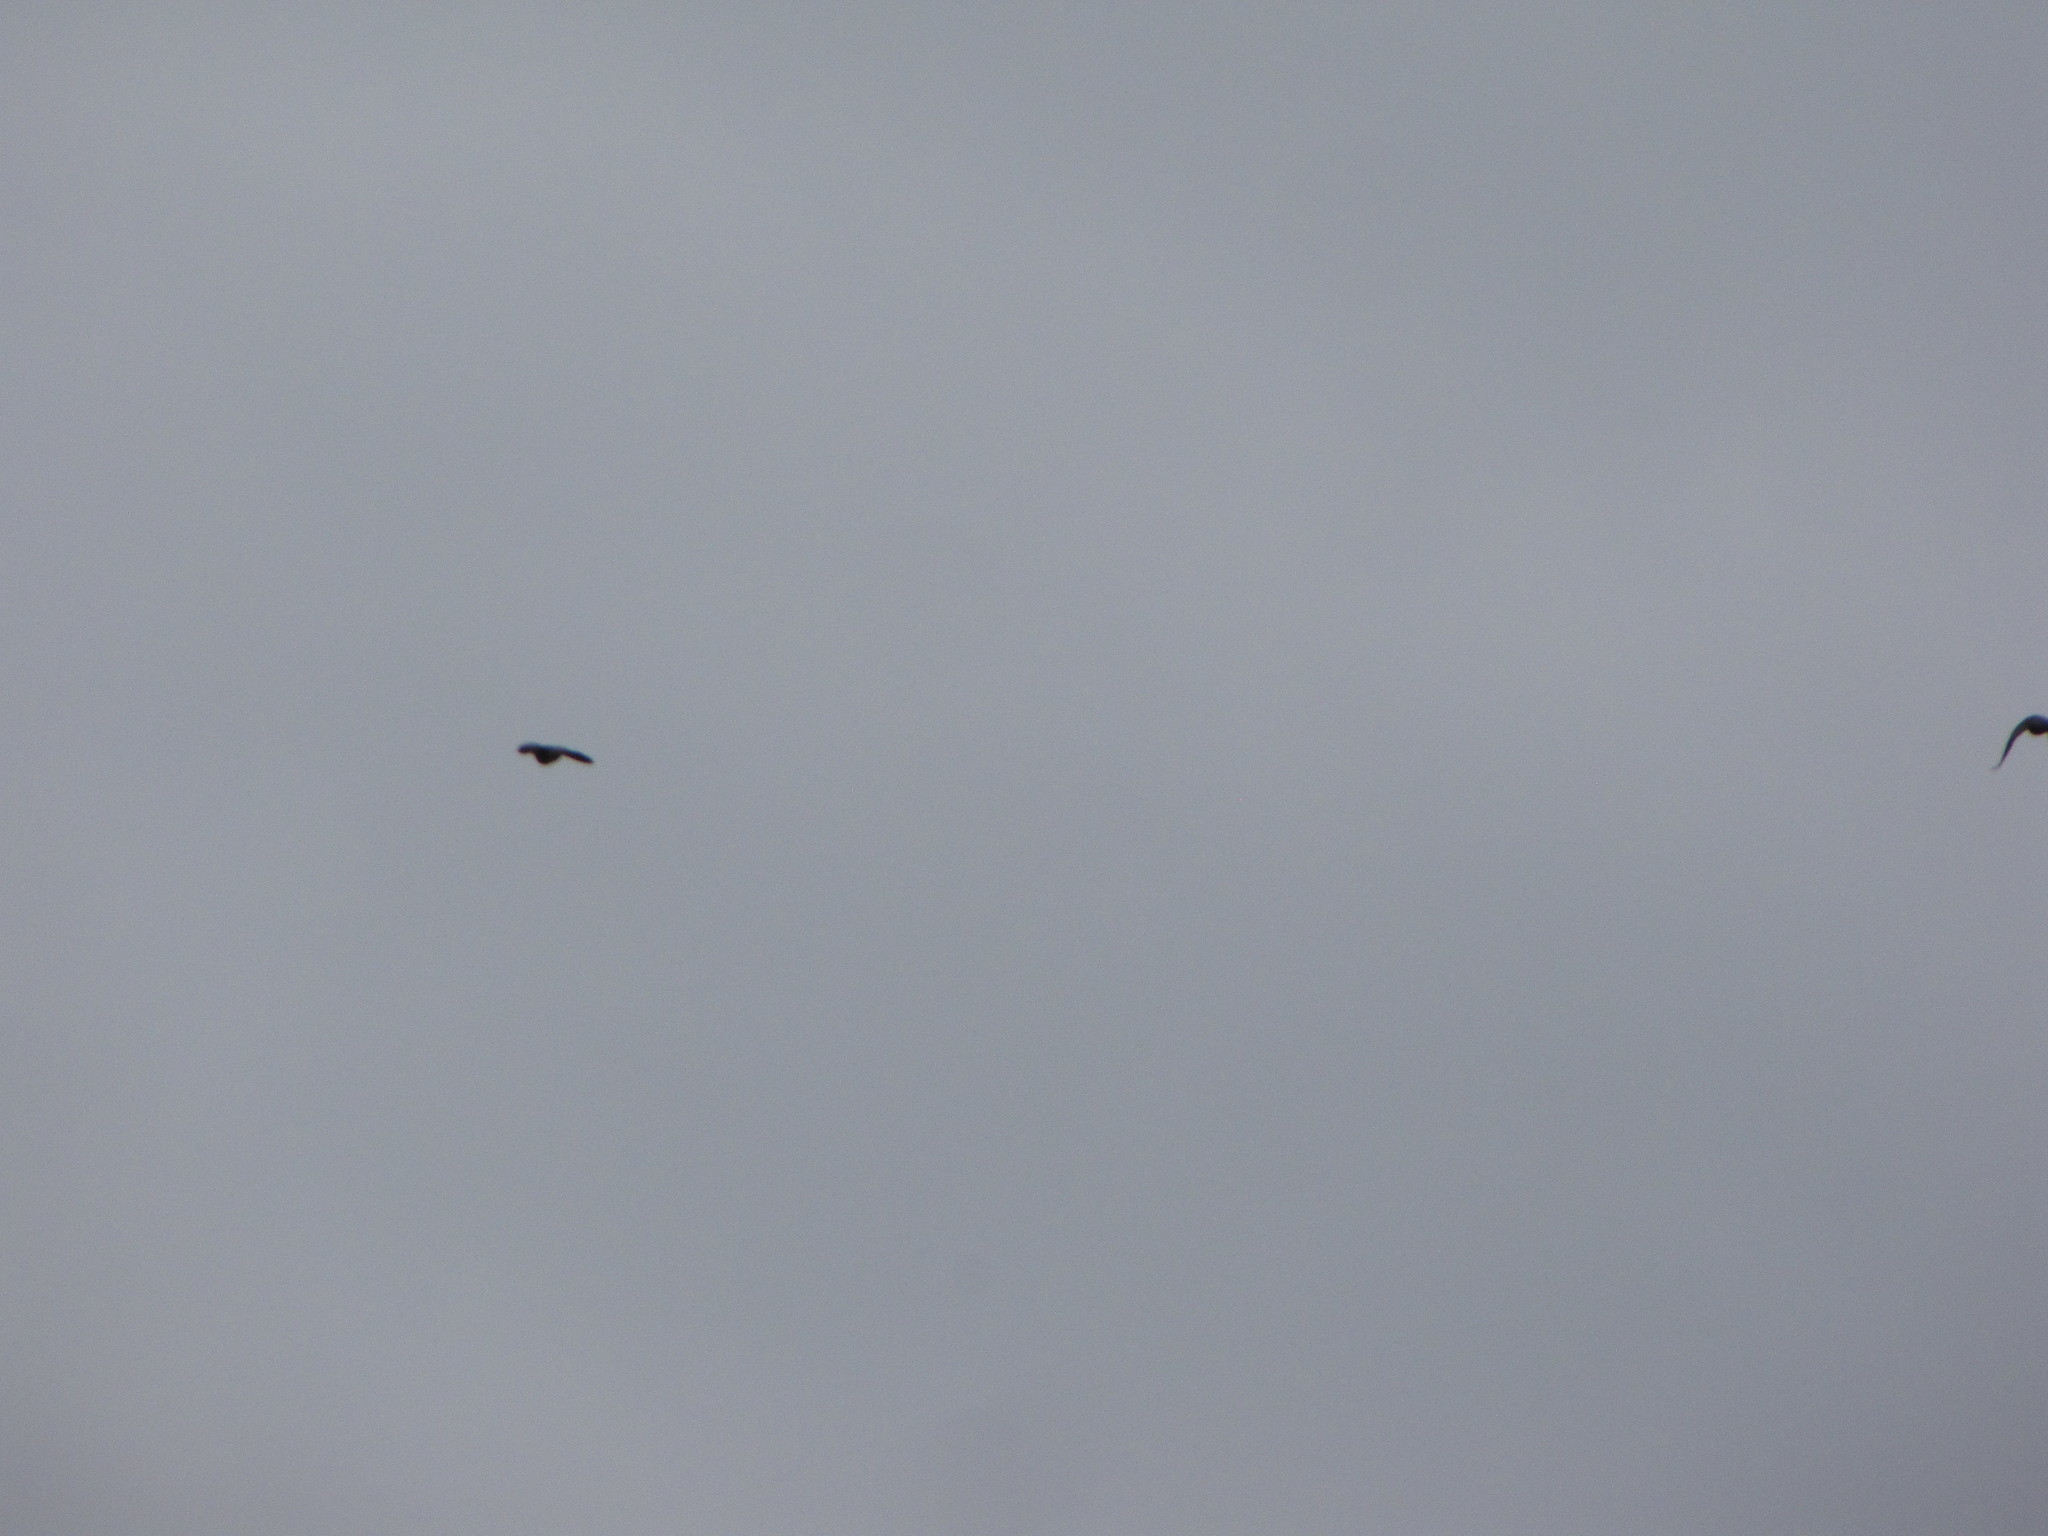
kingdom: Animalia
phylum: Chordata
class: Aves
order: Columbiformes
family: Columbidae
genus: Columba
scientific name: Columba livia
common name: Rock pigeon
